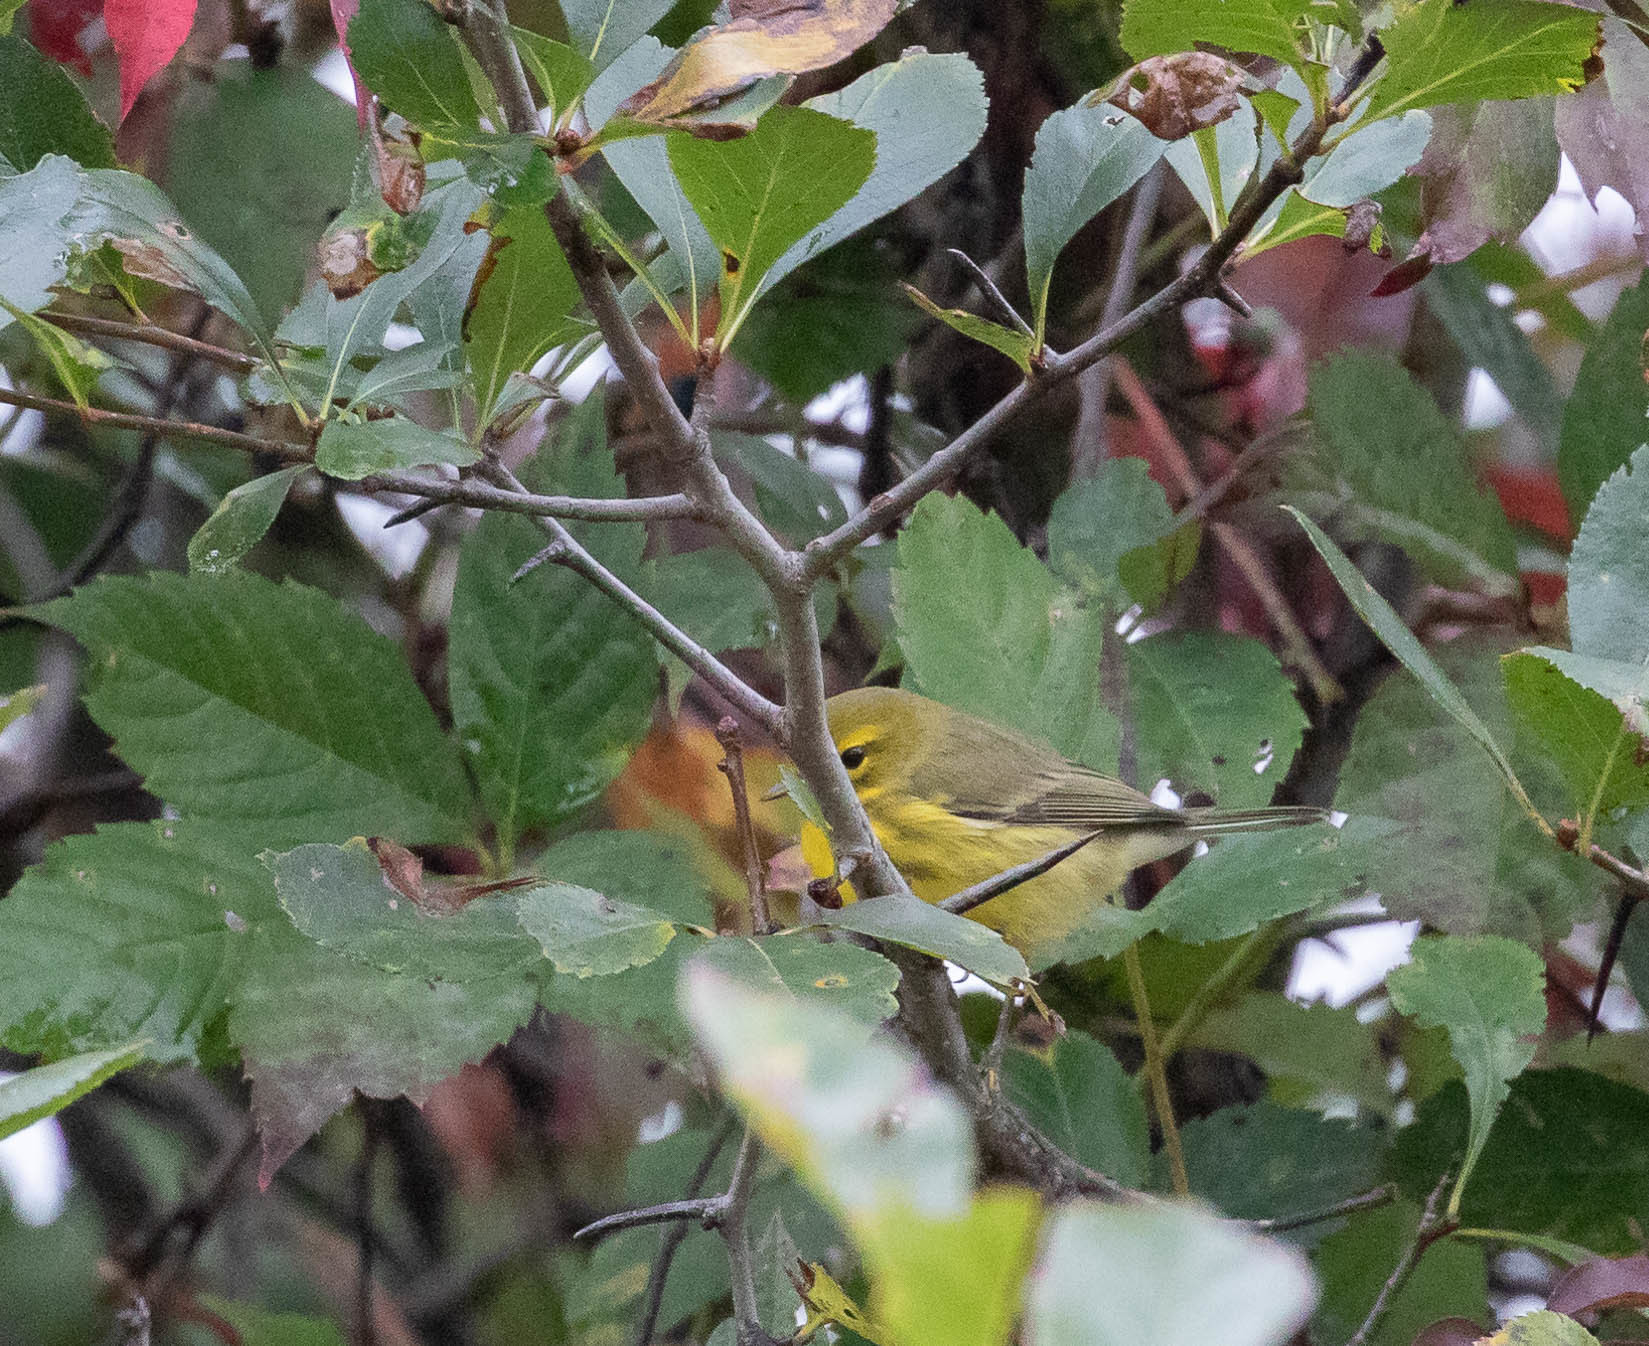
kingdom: Animalia
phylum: Chordata
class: Aves
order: Passeriformes
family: Parulidae
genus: Setophaga
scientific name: Setophaga discolor
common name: Prairie warbler
